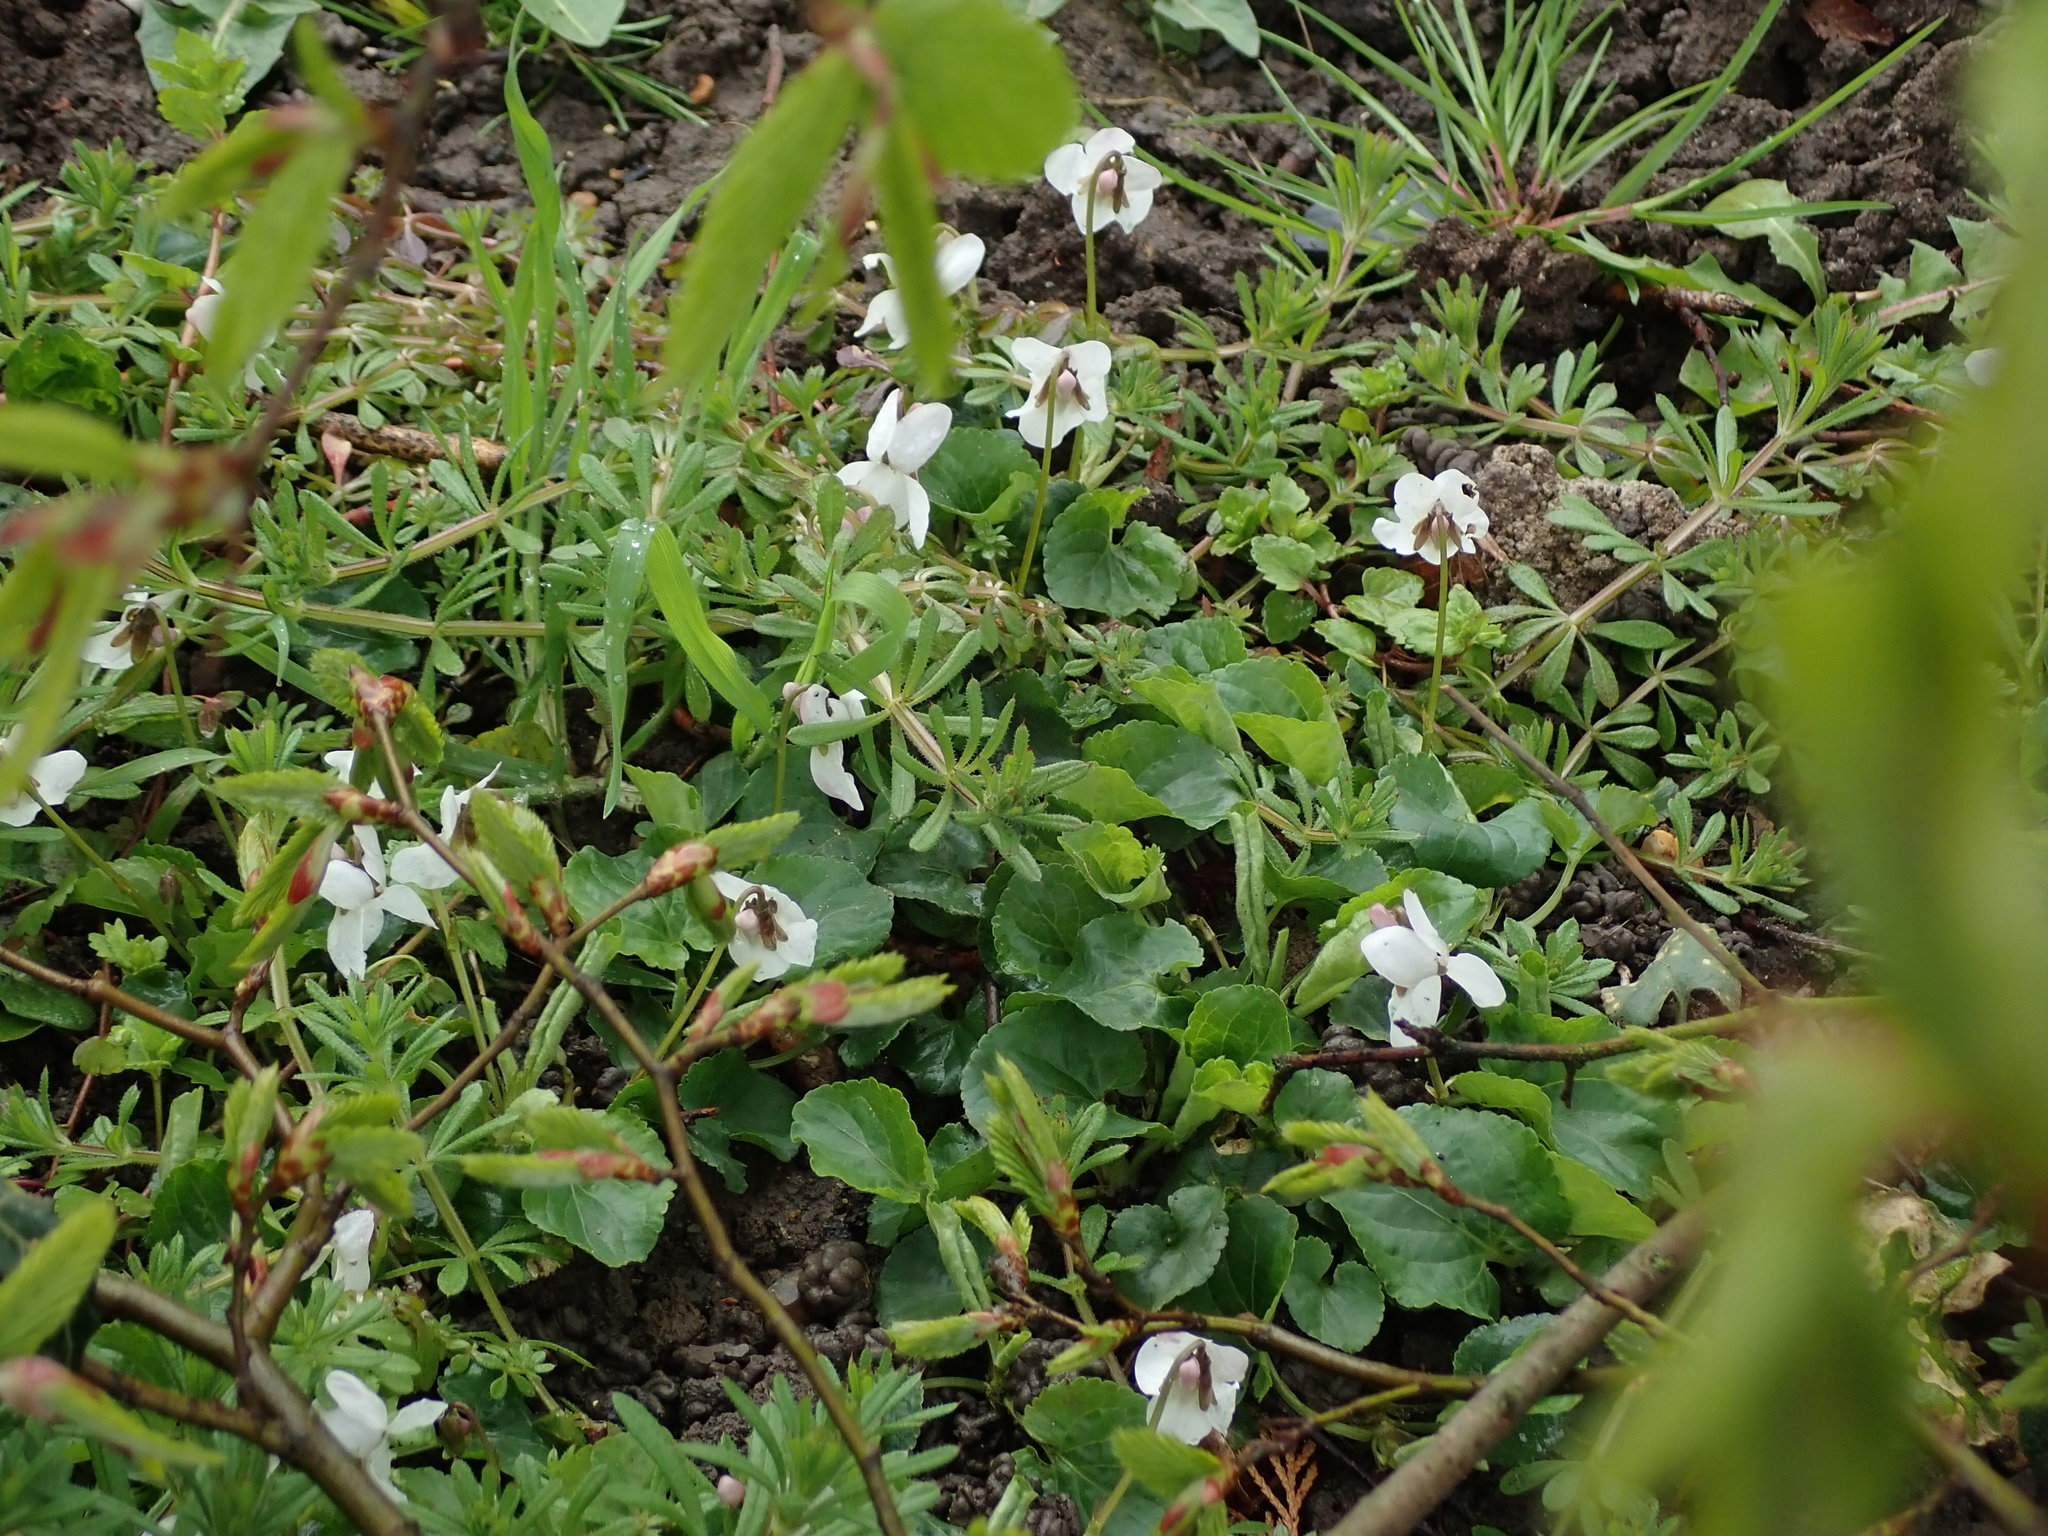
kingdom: Plantae
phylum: Tracheophyta
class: Magnoliopsida
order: Malpighiales
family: Violaceae
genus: Viola
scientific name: Viola odorata
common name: Sweet violet
